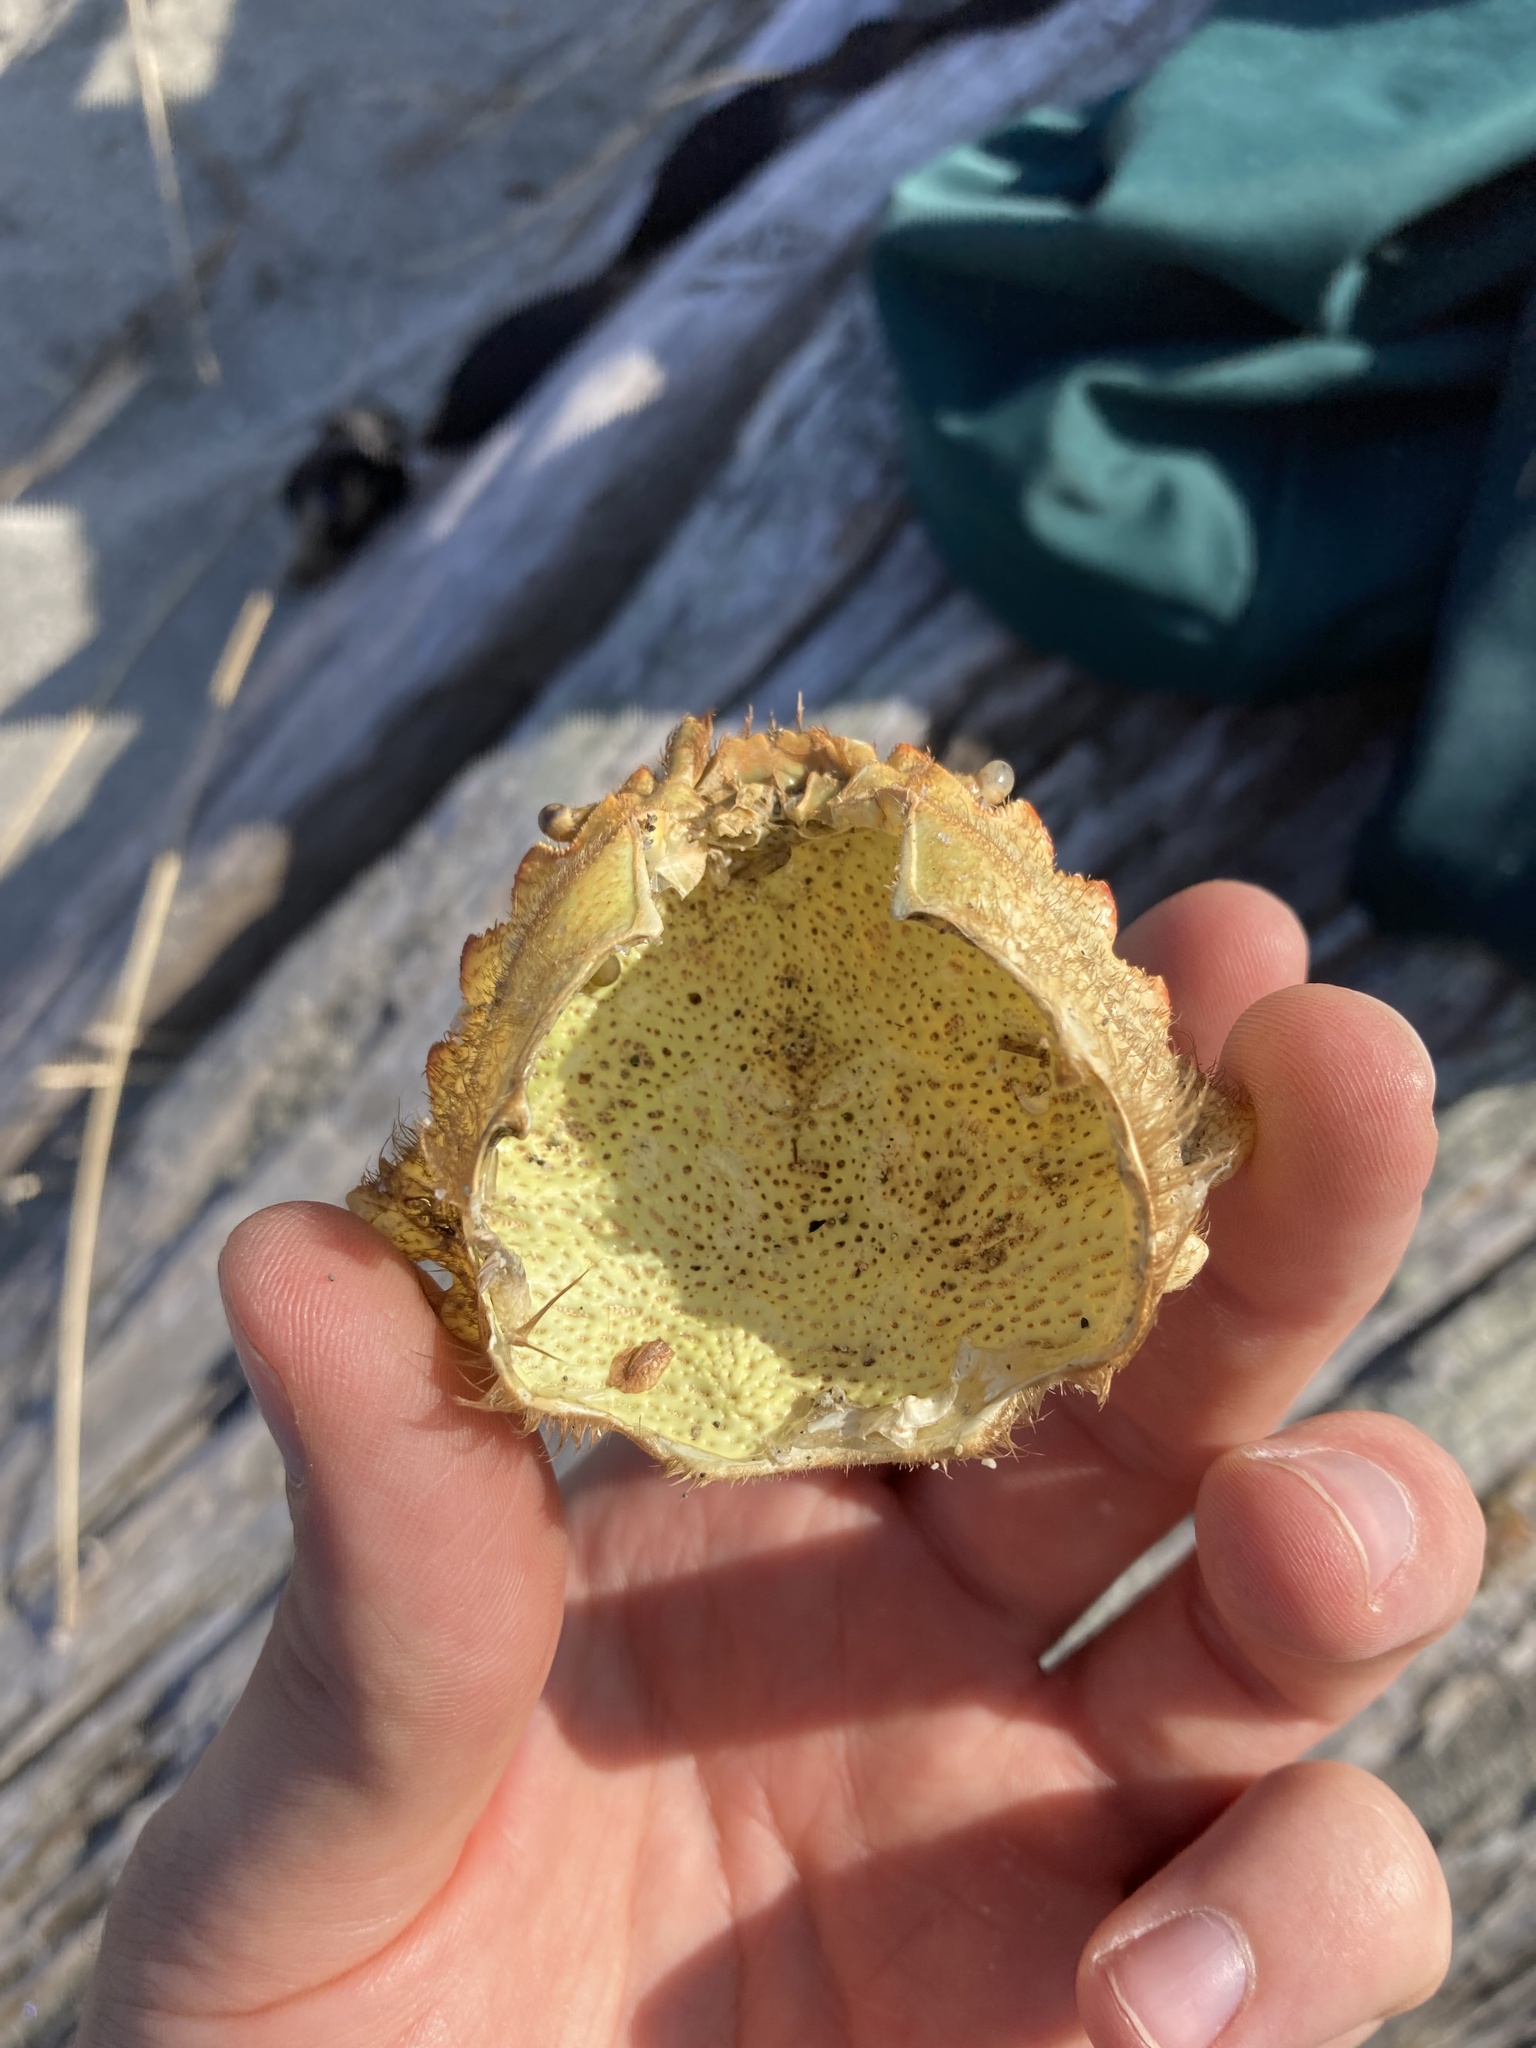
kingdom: Animalia
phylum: Arthropoda
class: Malacostraca
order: Decapoda
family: Cheiragonidae
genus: Telmessus
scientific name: Telmessus cheiragonus
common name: Helmet crab
